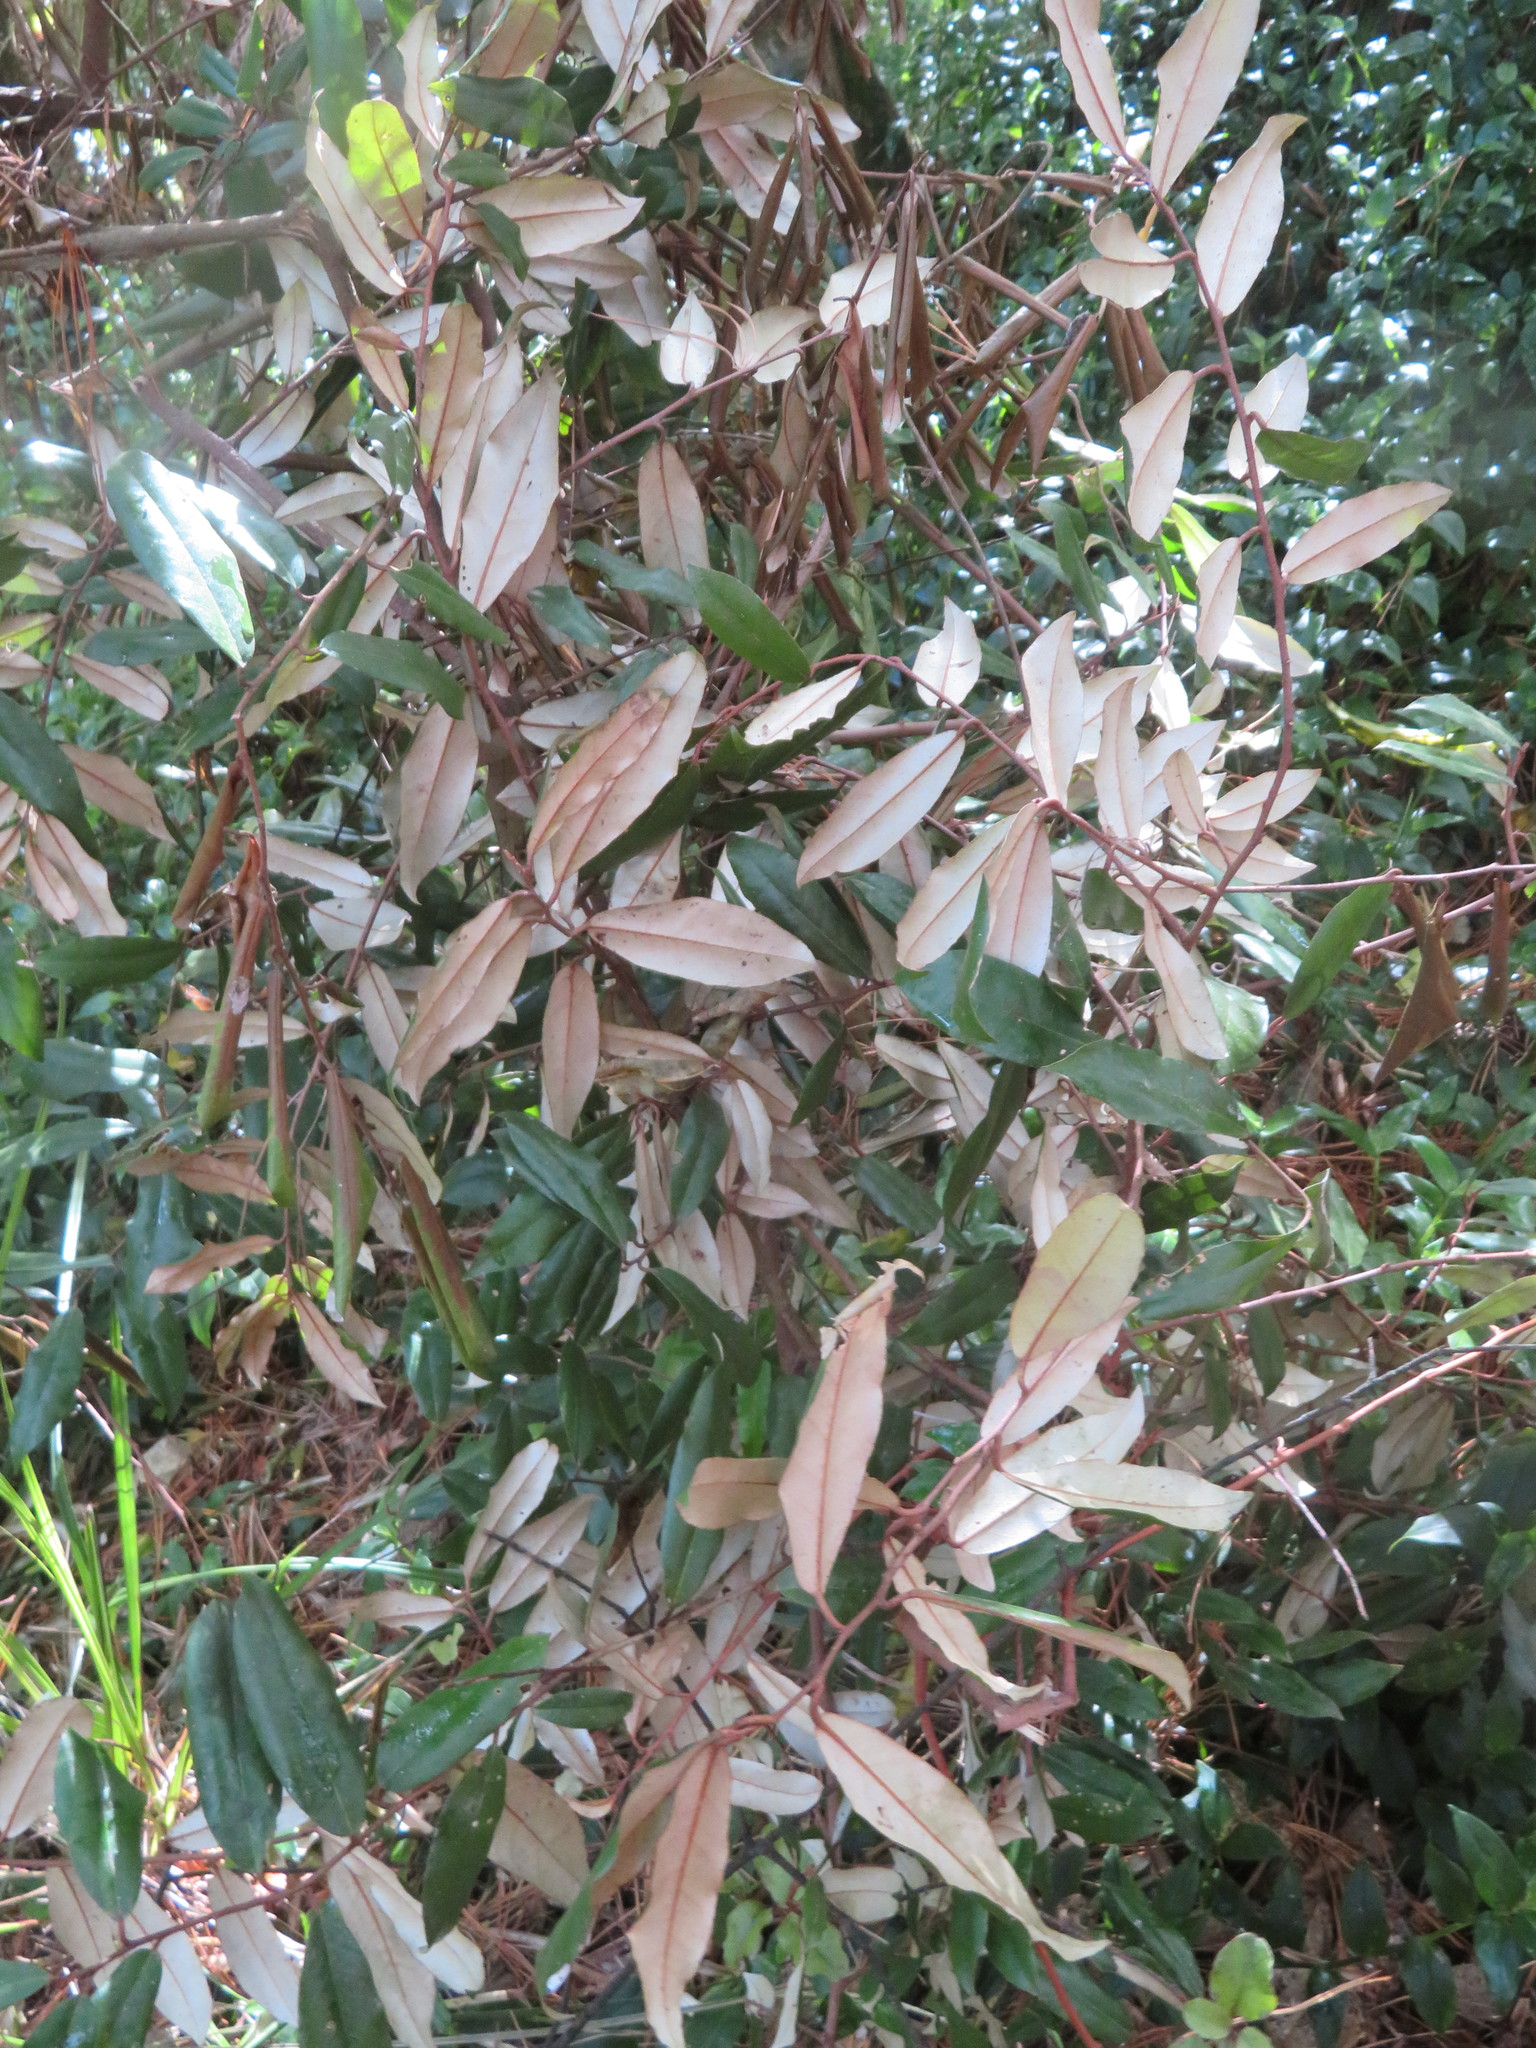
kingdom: Plantae
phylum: Tracheophyta
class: Magnoliopsida
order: Rosales
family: Elaeagnaceae
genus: Elaeagnus
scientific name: Elaeagnus reflexa
